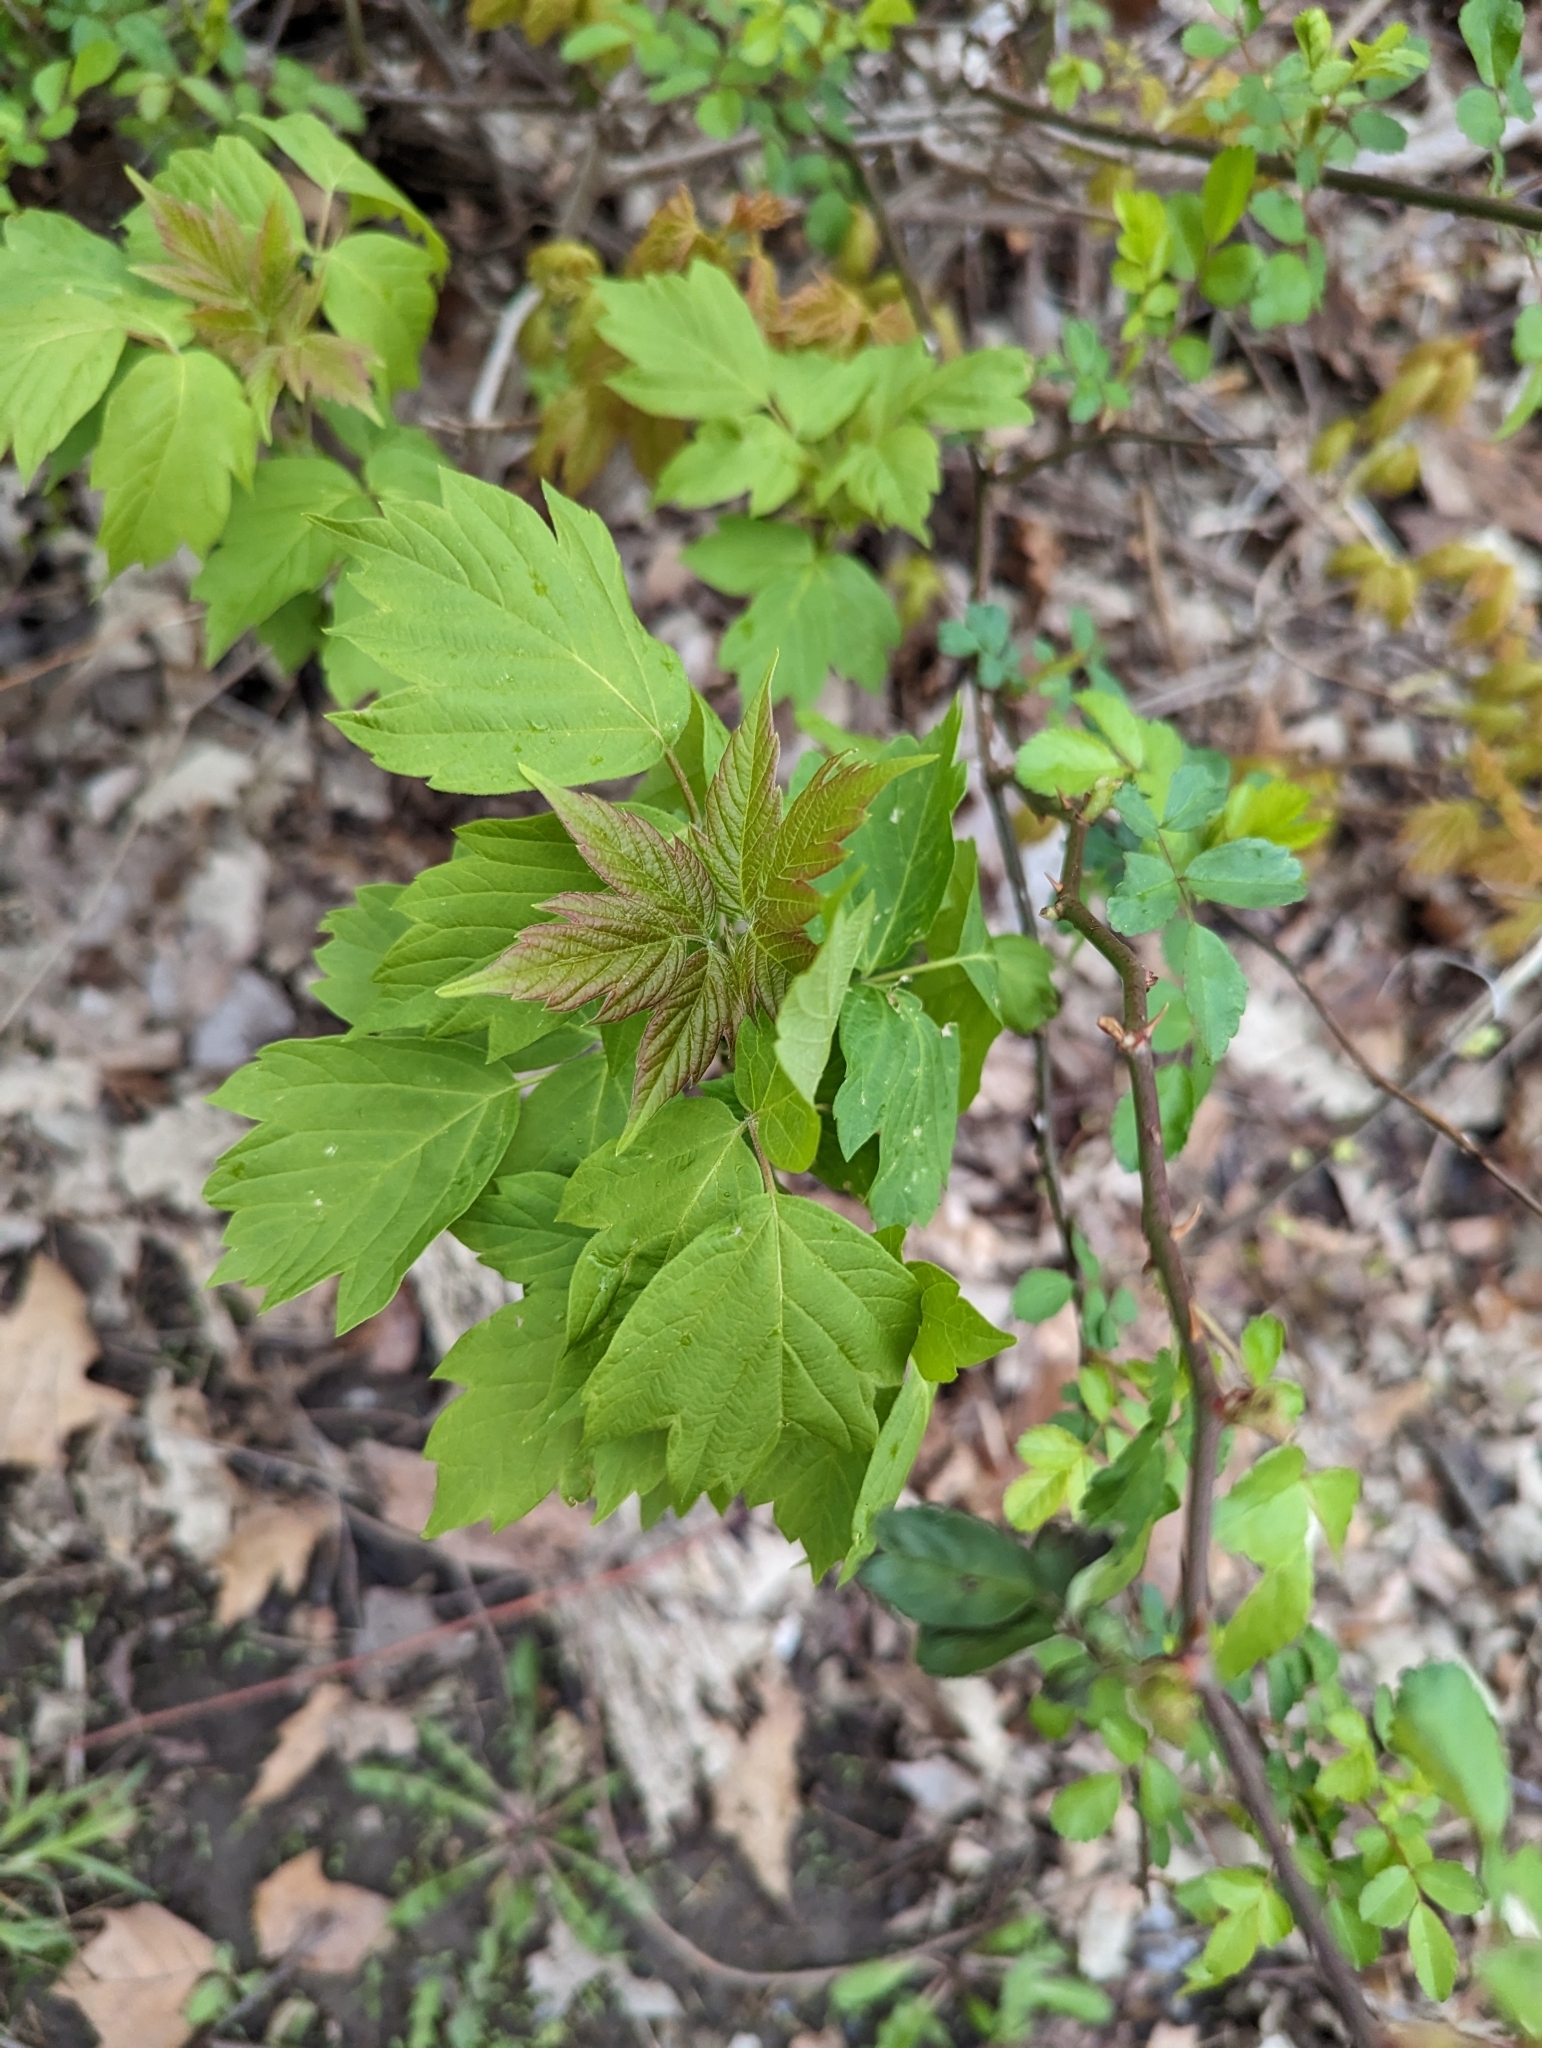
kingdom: Plantae
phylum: Tracheophyta
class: Magnoliopsida
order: Sapindales
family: Sapindaceae
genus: Acer
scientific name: Acer negundo
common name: Ashleaf maple
